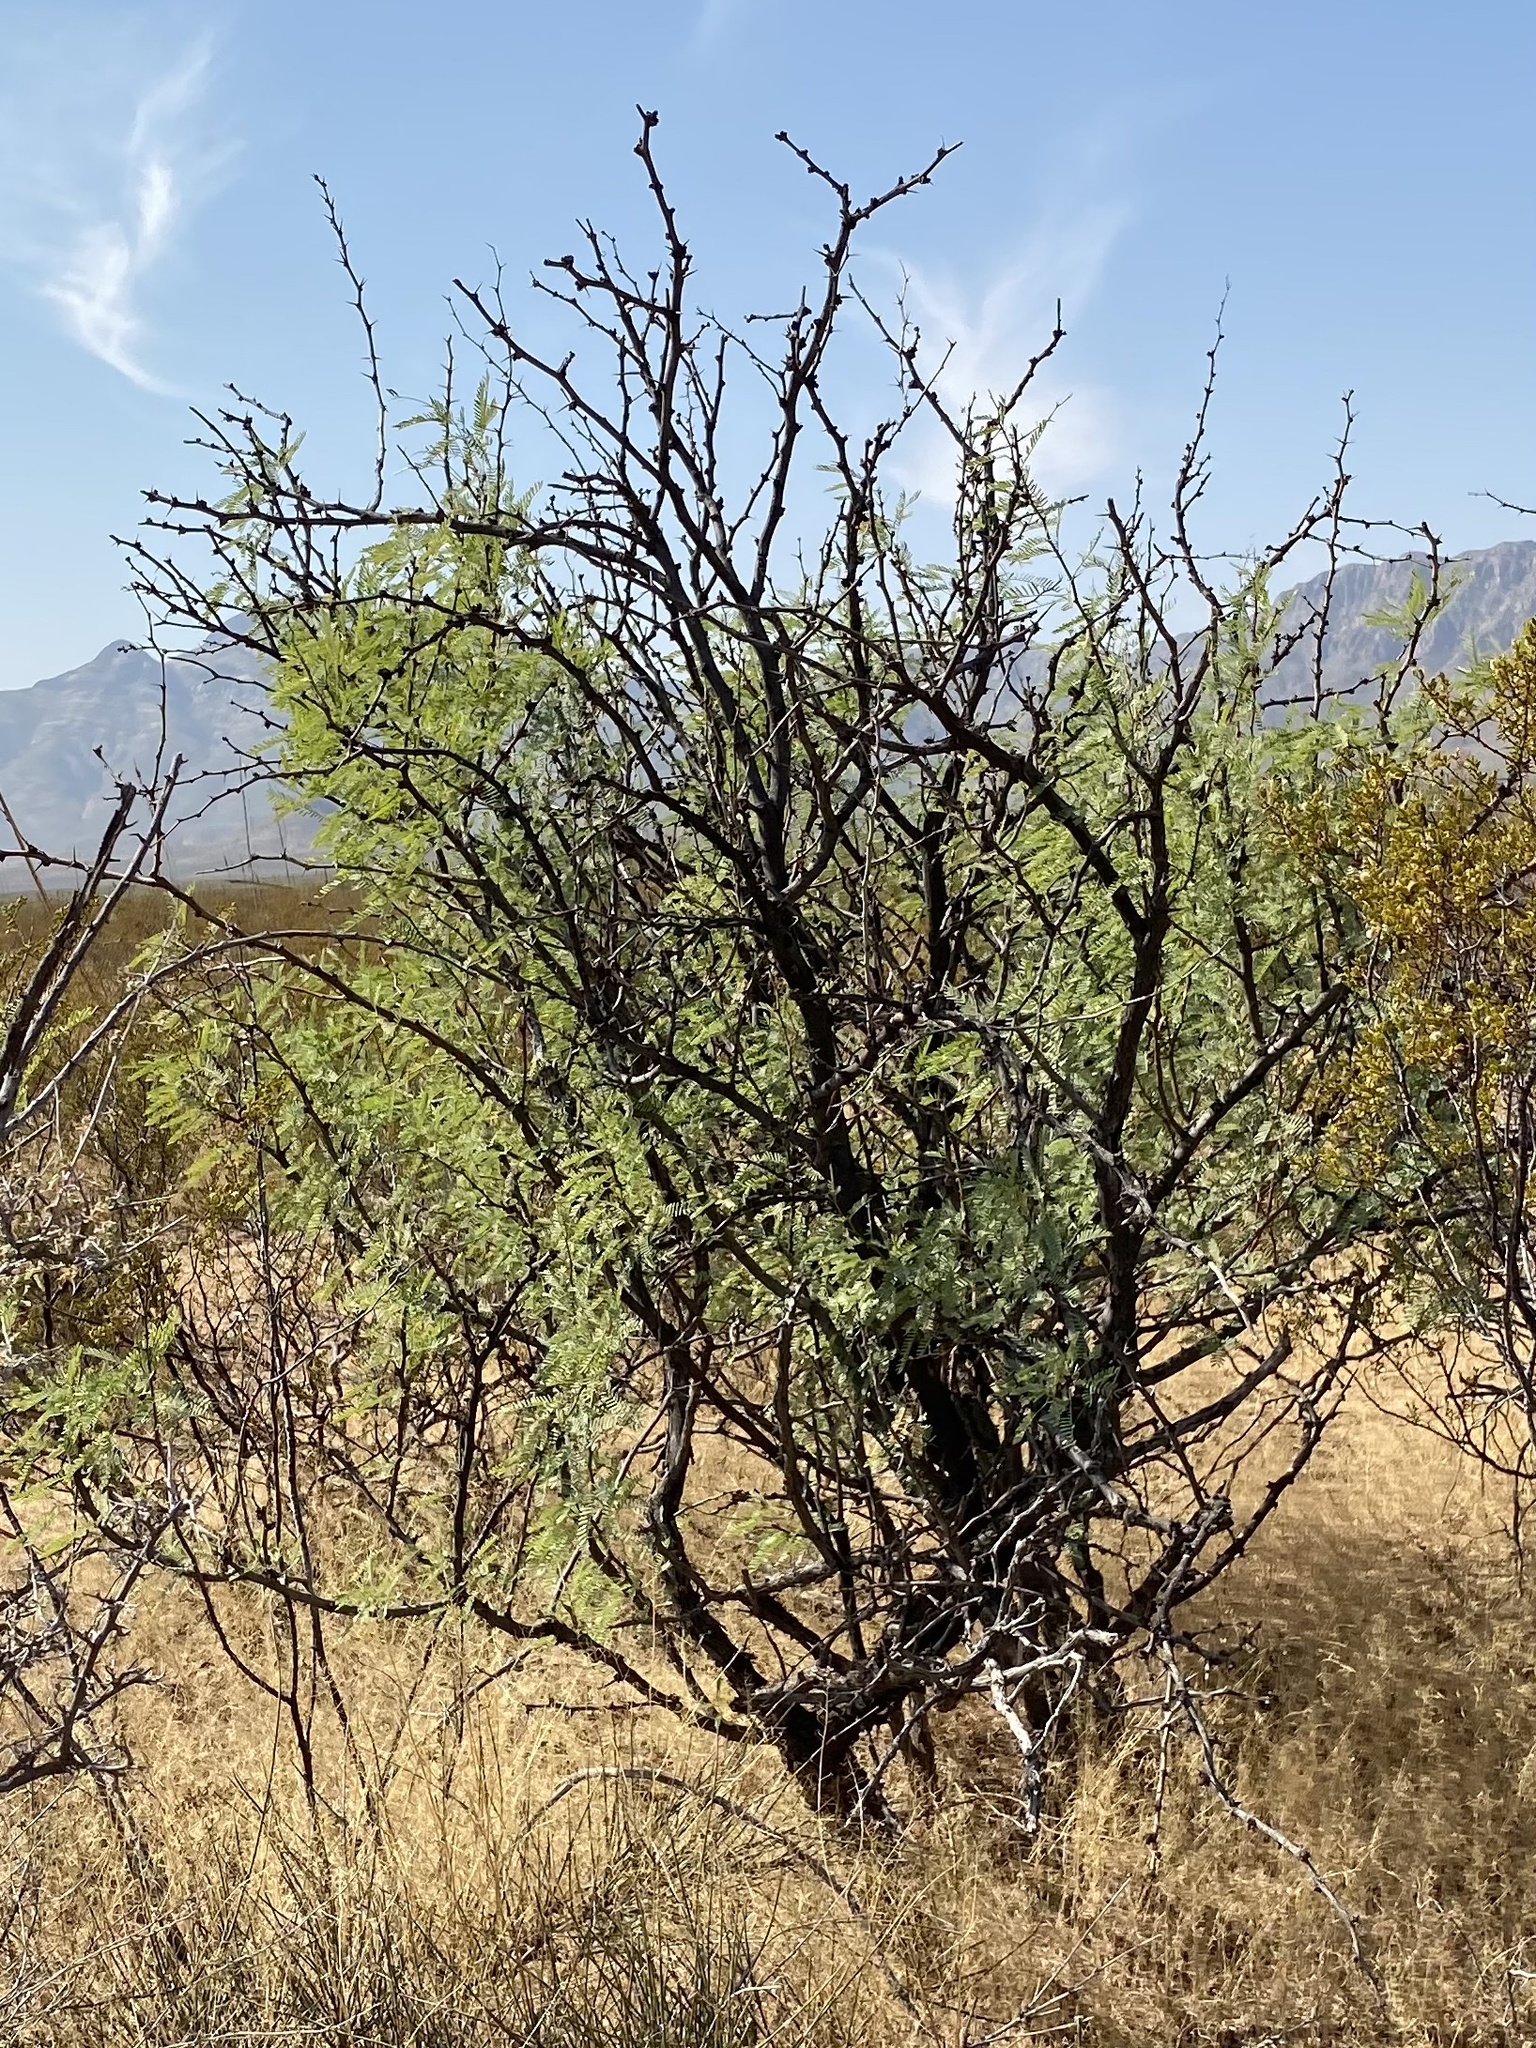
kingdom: Plantae
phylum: Tracheophyta
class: Magnoliopsida
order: Fabales
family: Fabaceae
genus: Prosopis
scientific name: Prosopis glandulosa
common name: Honey mesquite
